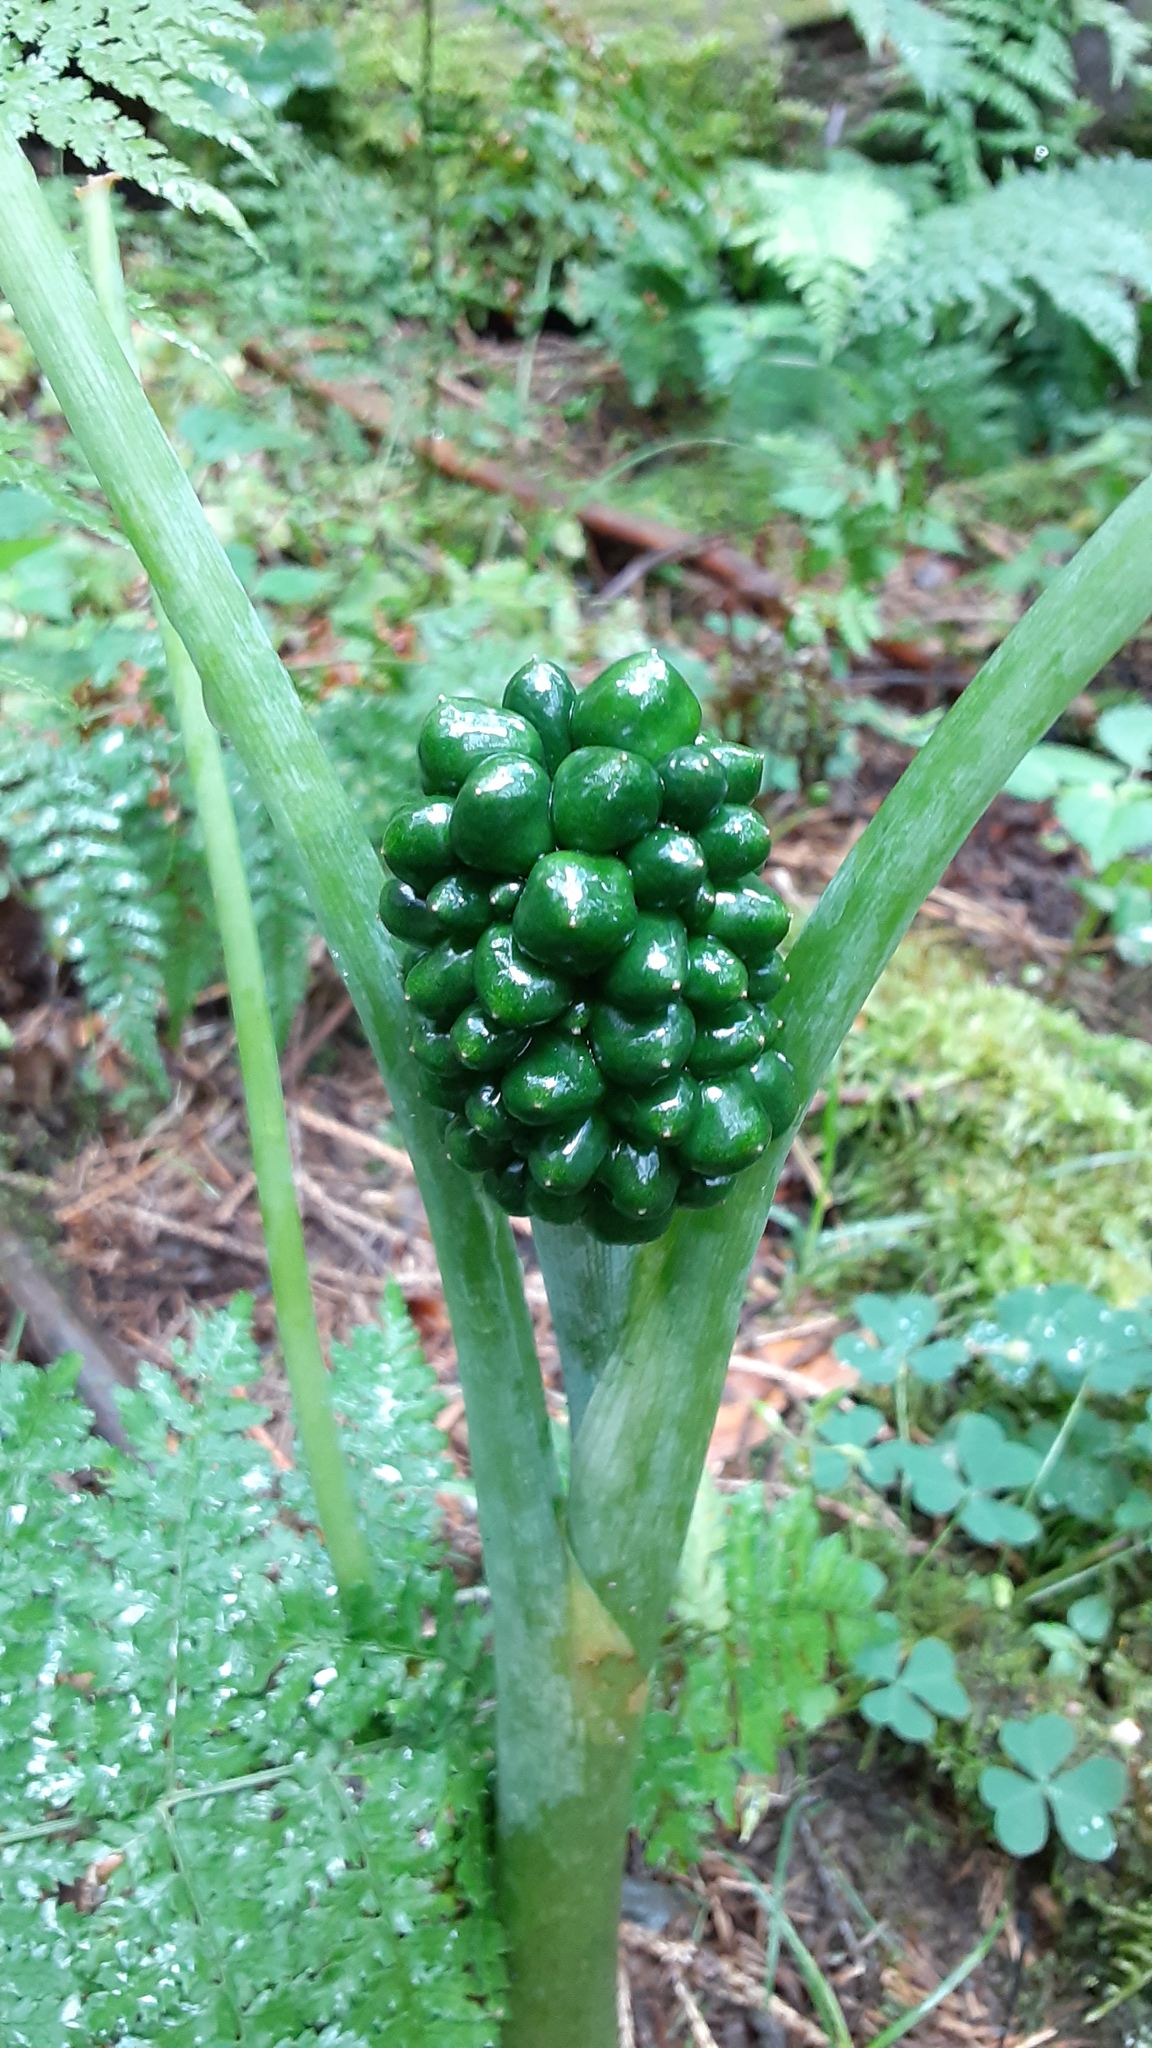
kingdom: Plantae
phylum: Tracheophyta
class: Liliopsida
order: Alismatales
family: Araceae
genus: Arisaema
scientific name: Arisaema triphyllum
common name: Jack-in-the-pulpit
